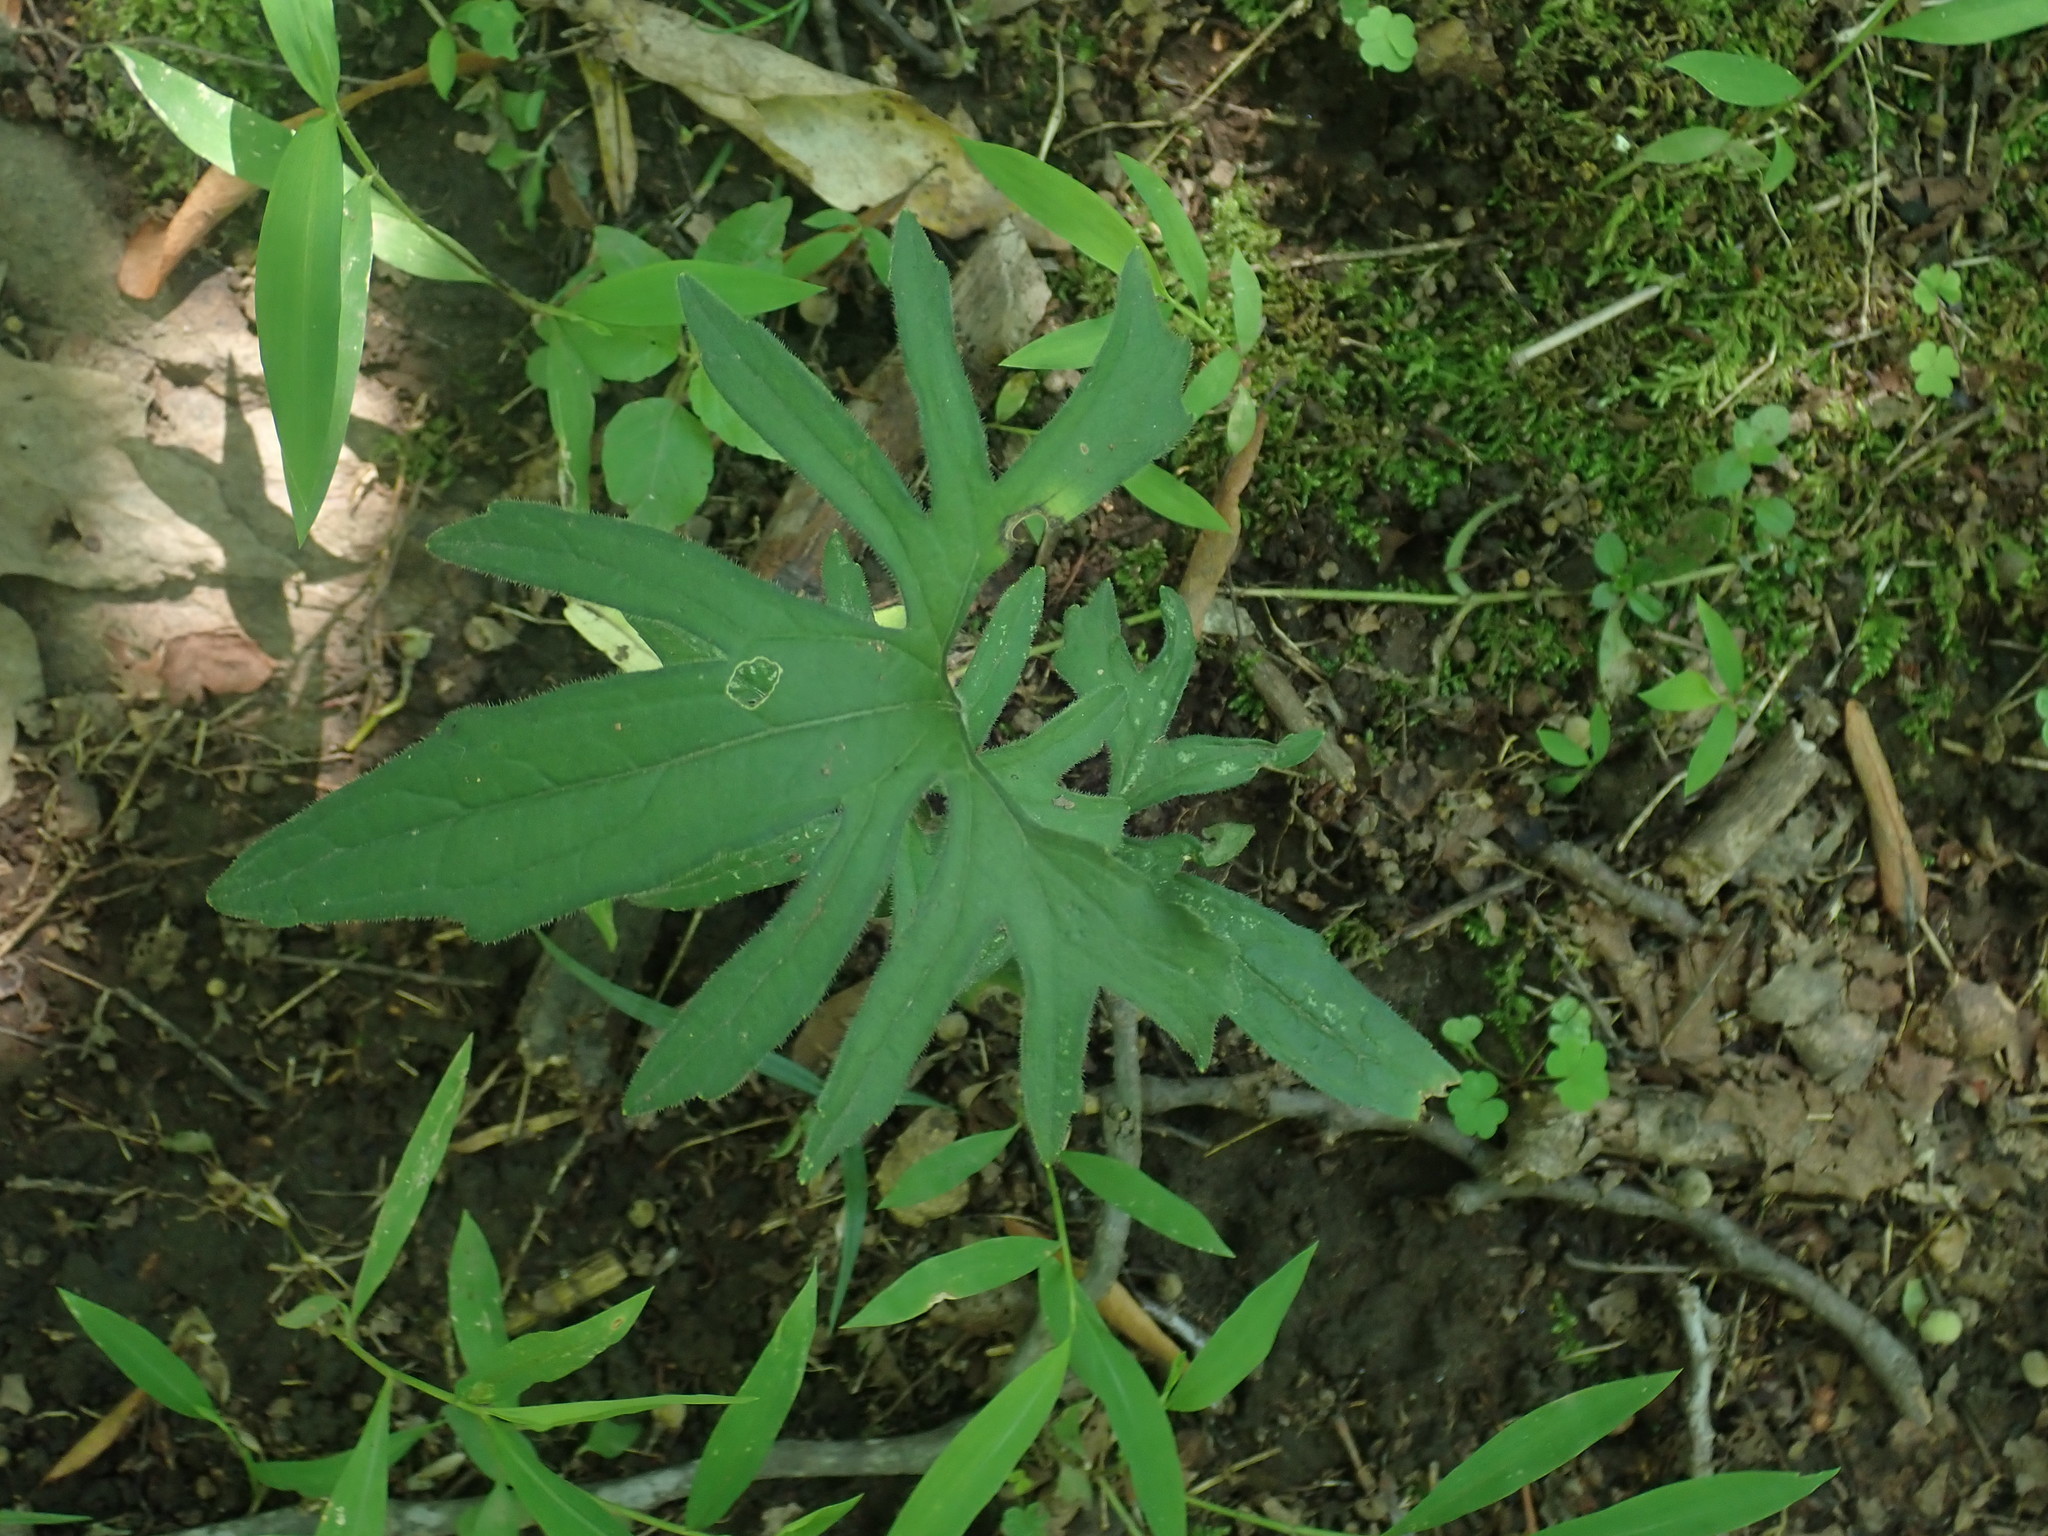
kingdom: Plantae
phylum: Tracheophyta
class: Magnoliopsida
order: Malpighiales
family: Violaceae
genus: Viola
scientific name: Viola palmata
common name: Early blue violet
